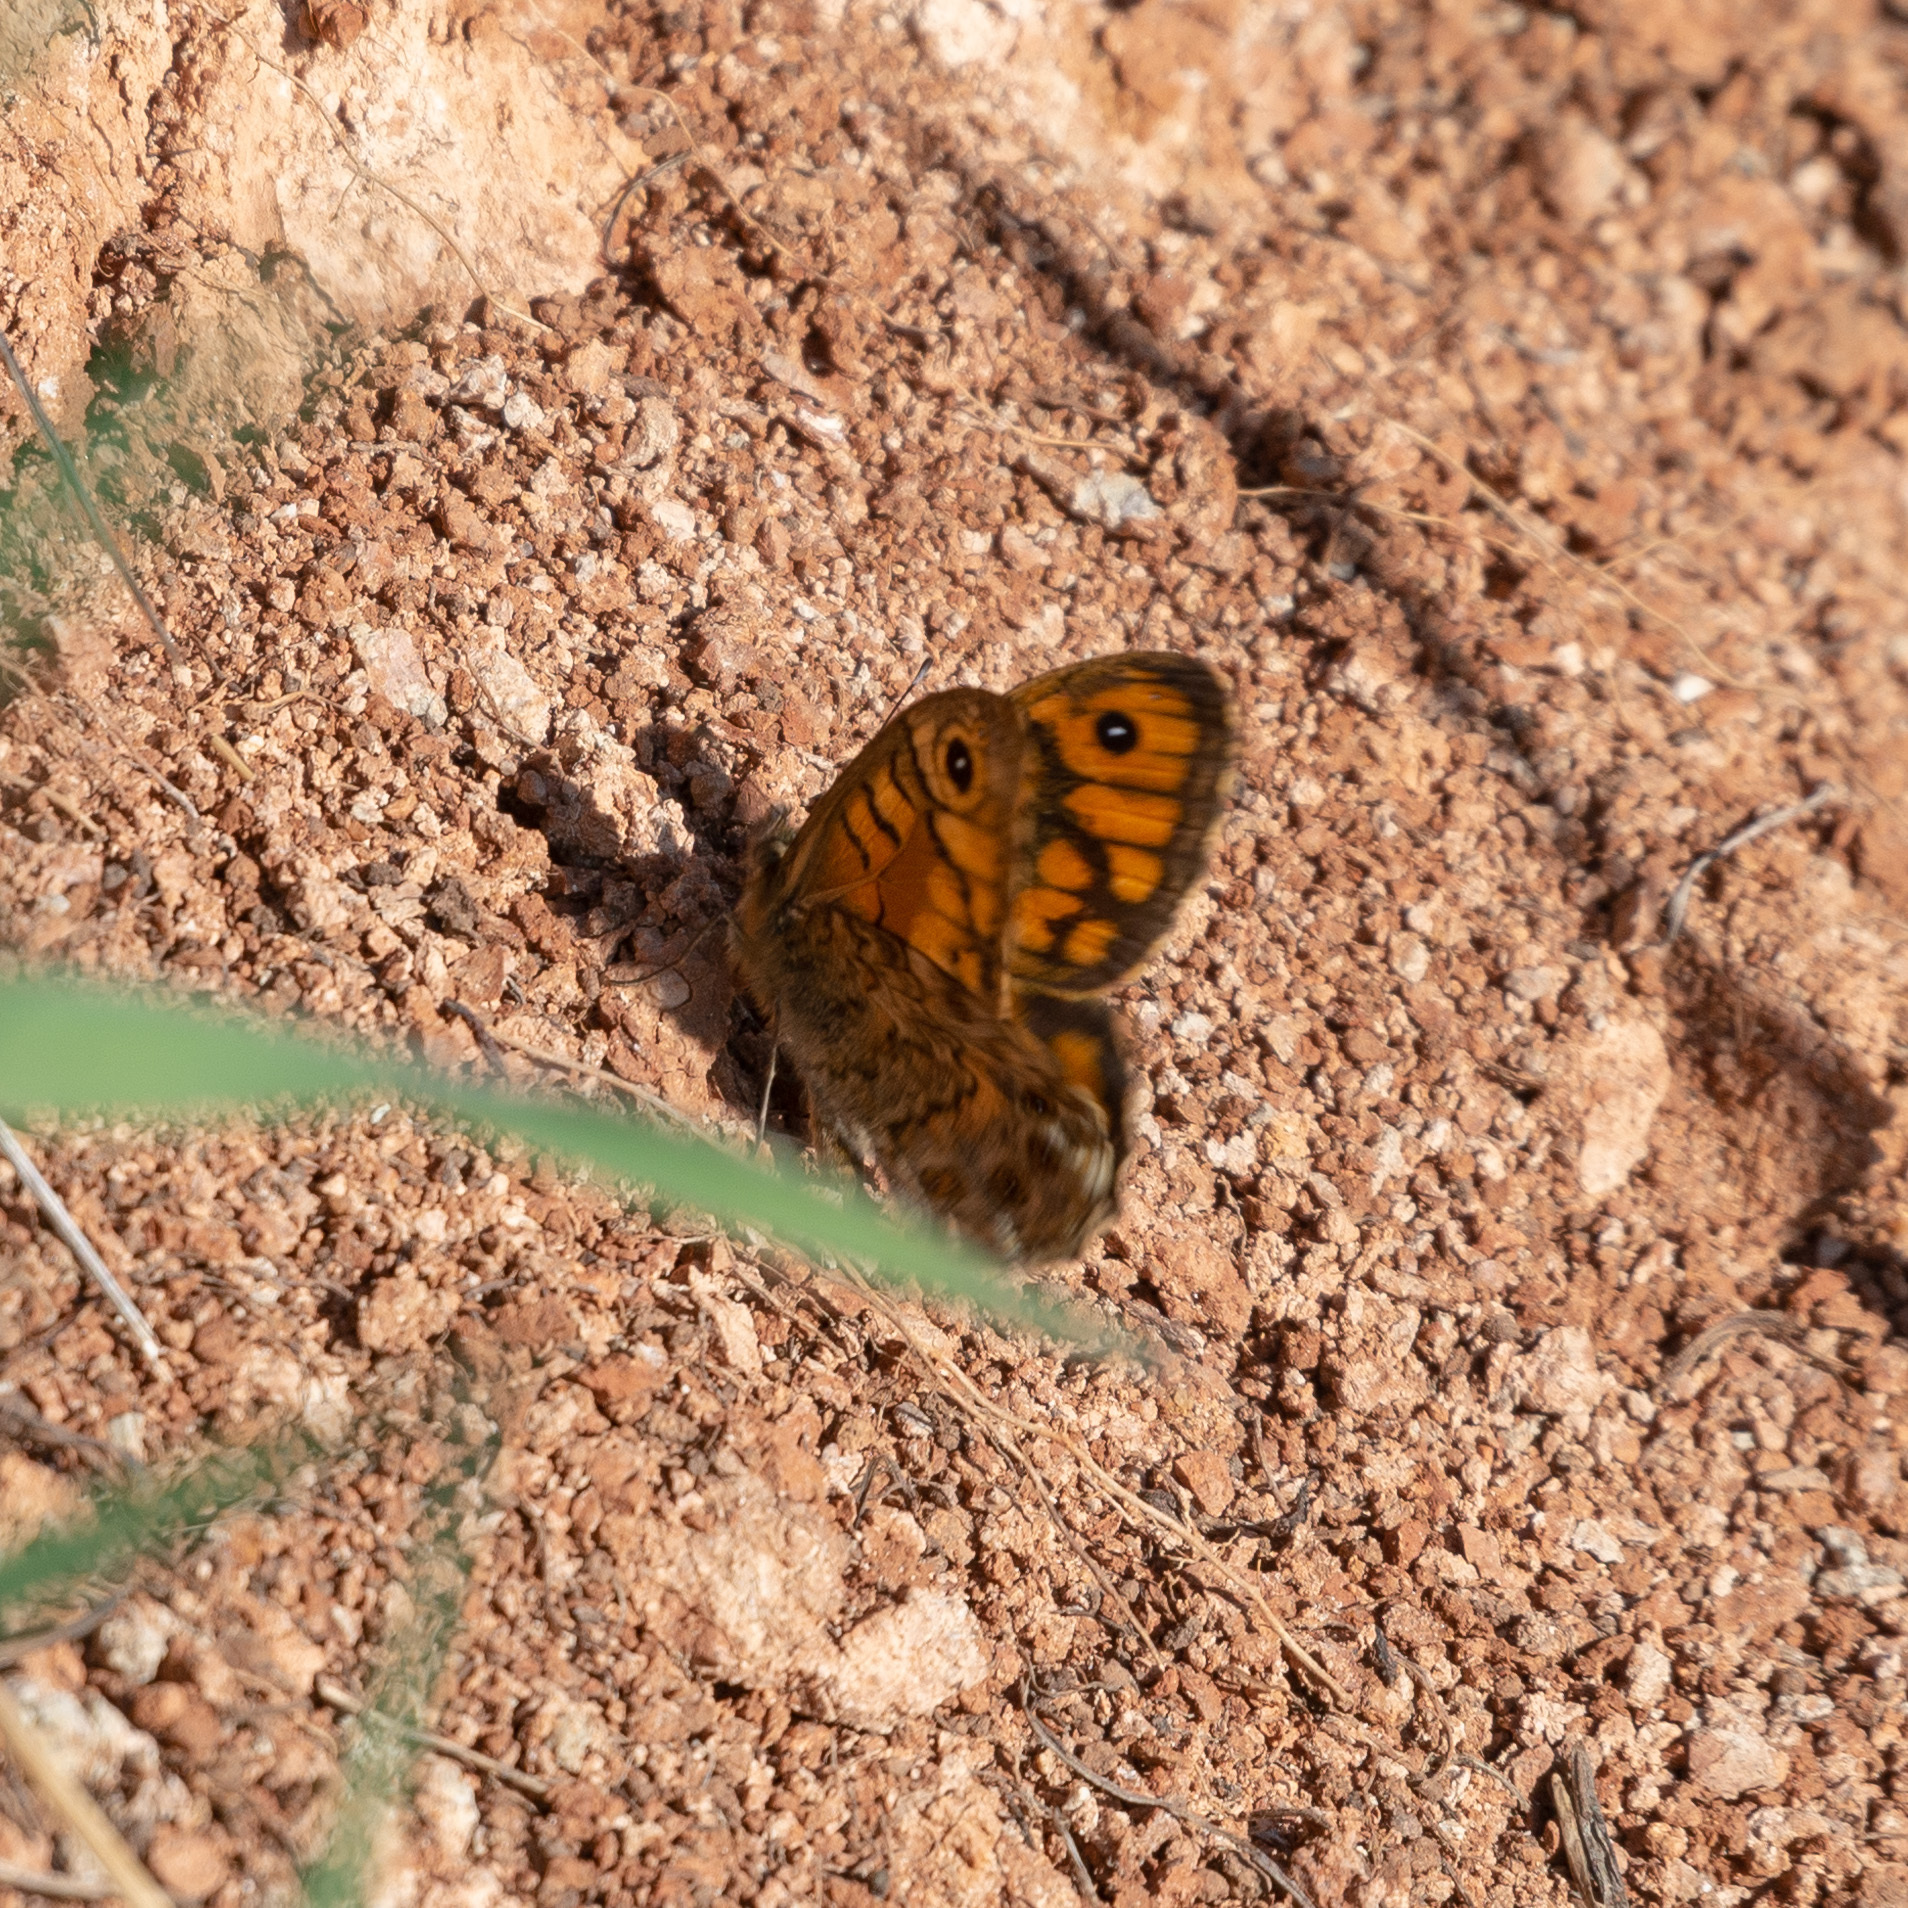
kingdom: Animalia
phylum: Arthropoda
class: Insecta
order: Lepidoptera
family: Nymphalidae
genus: Pararge
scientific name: Pararge Lasiommata megera
